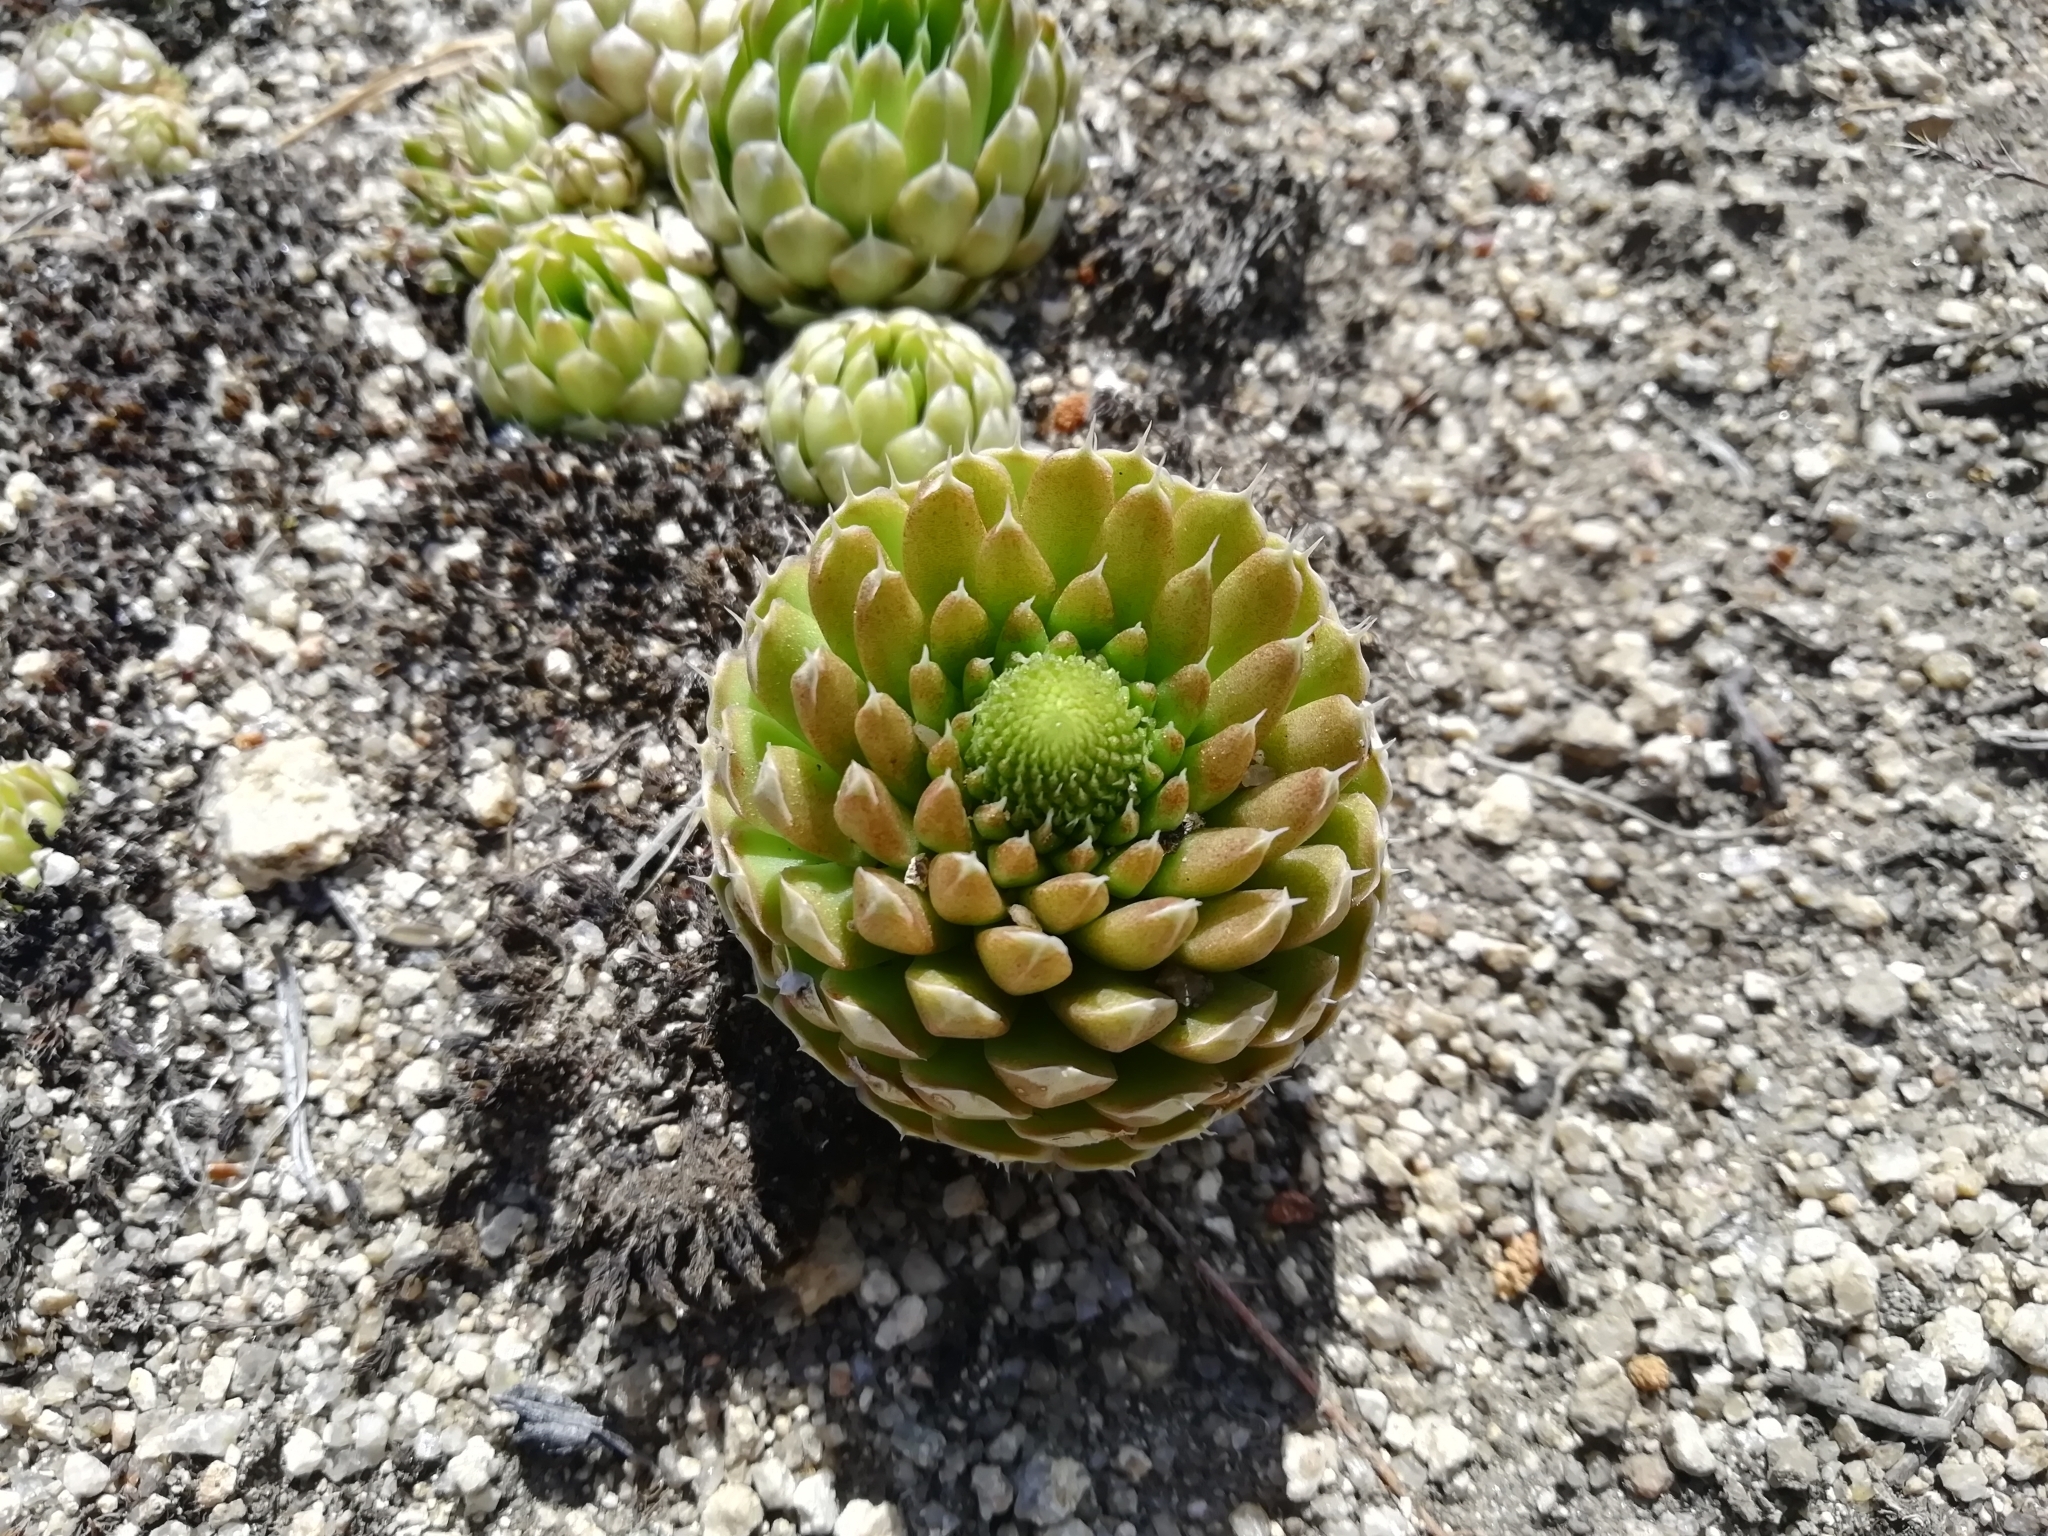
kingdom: Plantae
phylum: Tracheophyta
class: Magnoliopsida
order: Saxifragales
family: Crassulaceae
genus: Orostachys
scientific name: Orostachys spinosa
